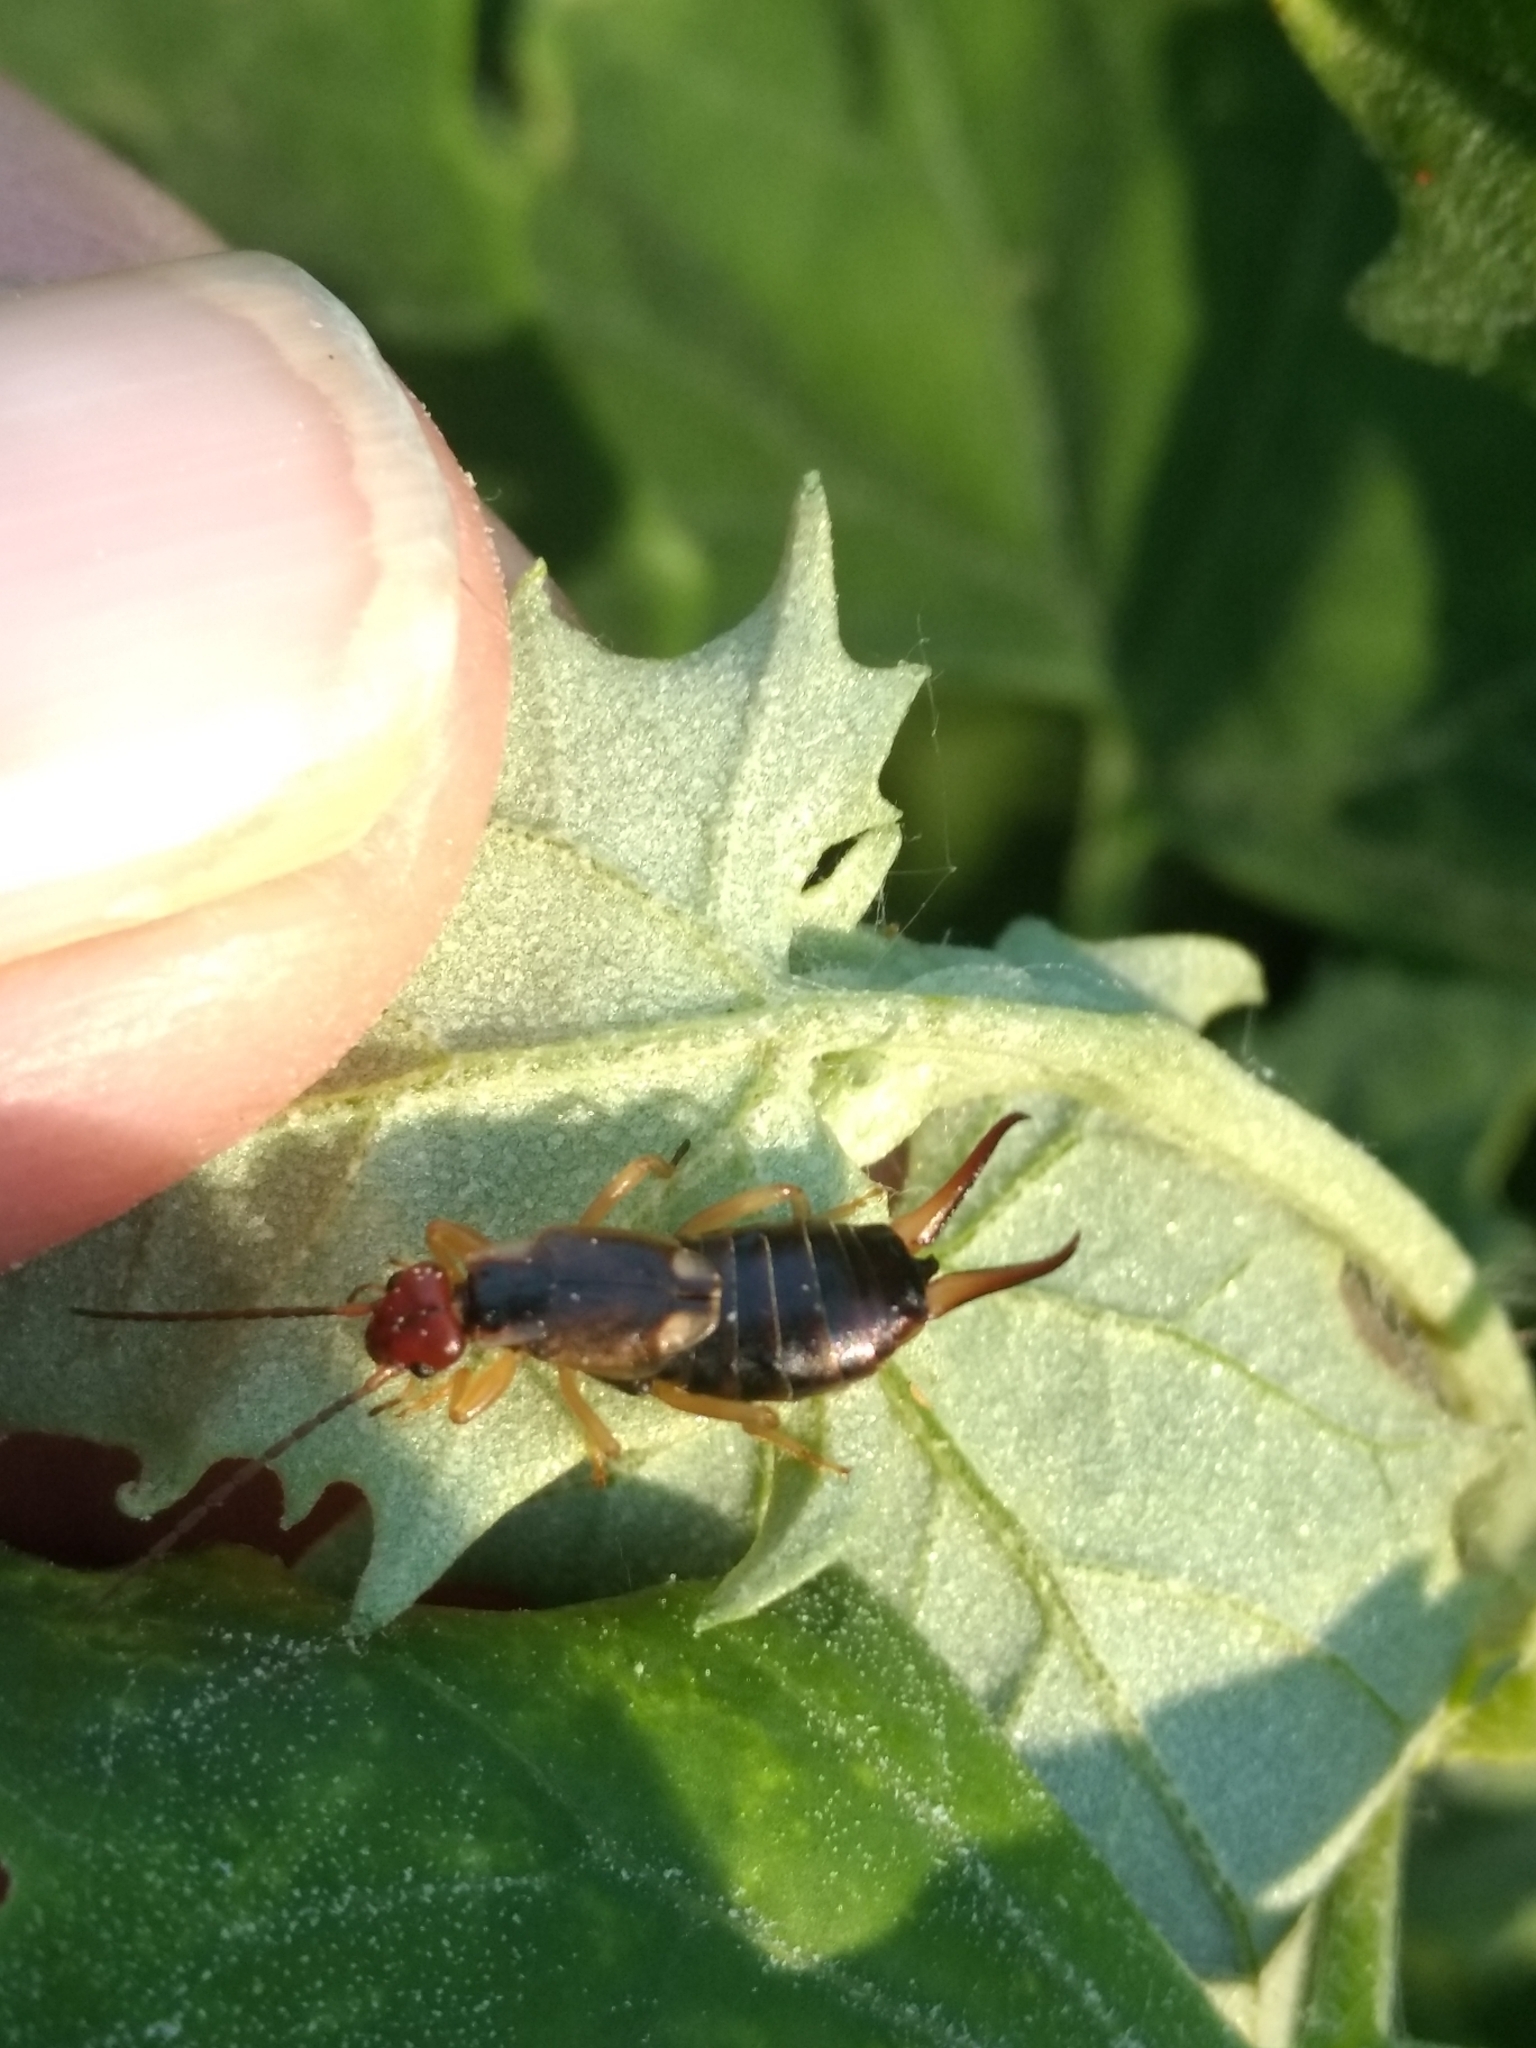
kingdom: Animalia
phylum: Arthropoda
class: Insecta
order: Dermaptera
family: Forficulidae
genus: Forficula
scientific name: Forficula
